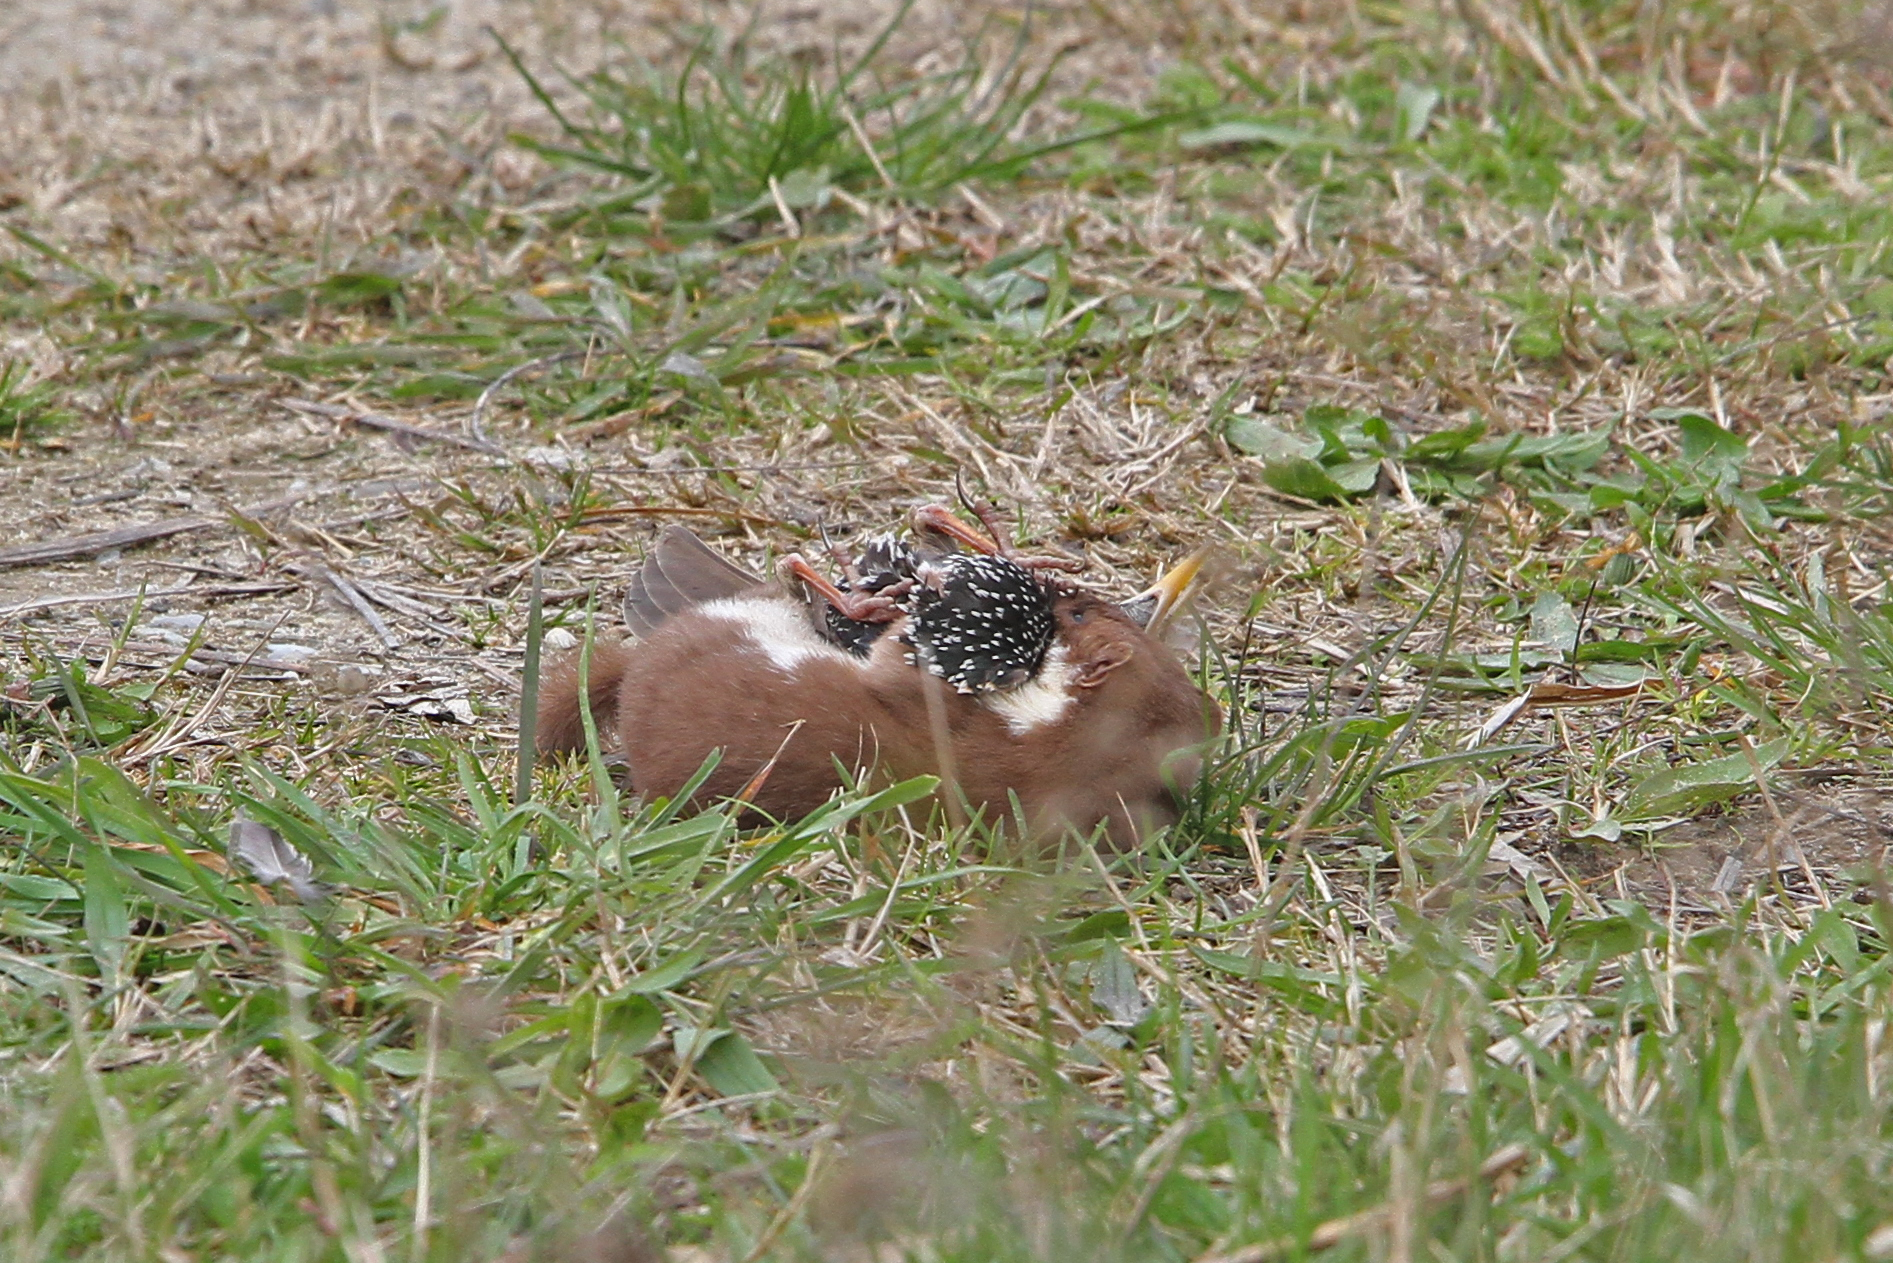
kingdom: Animalia
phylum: Chordata
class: Mammalia
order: Carnivora
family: Mustelidae
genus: Mustela
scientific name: Mustela erminea
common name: Stoat
